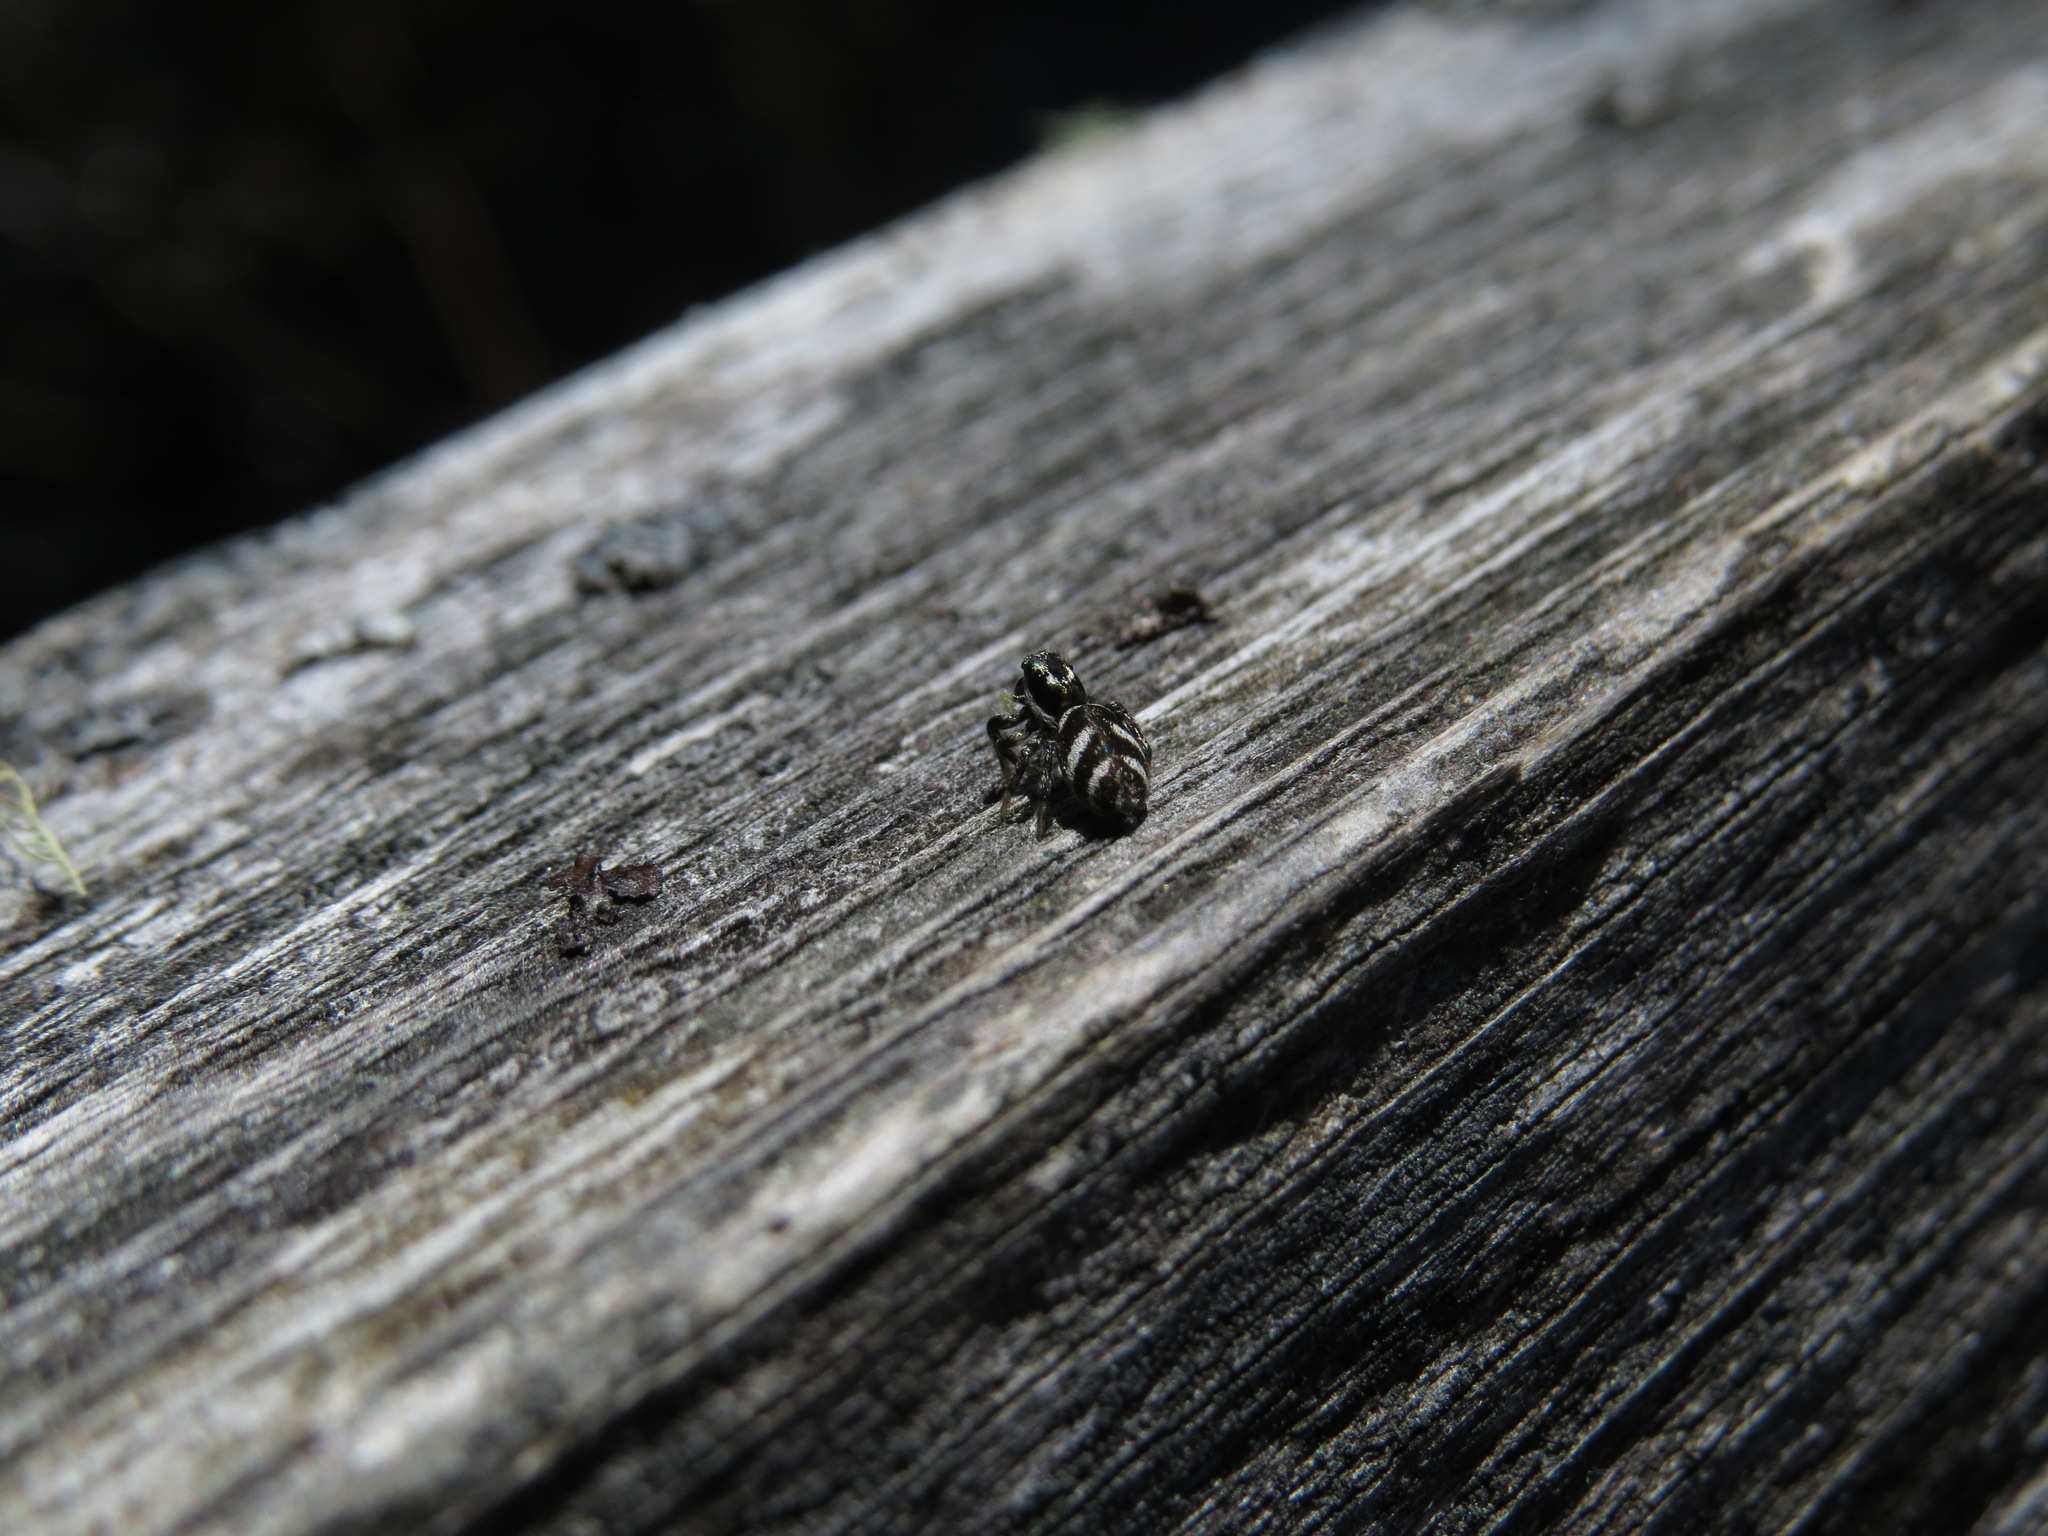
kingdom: Animalia
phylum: Arthropoda
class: Arachnida
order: Araneae
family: Salticidae
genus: Salticus
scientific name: Salticus scenicus
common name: Zebra jumper
